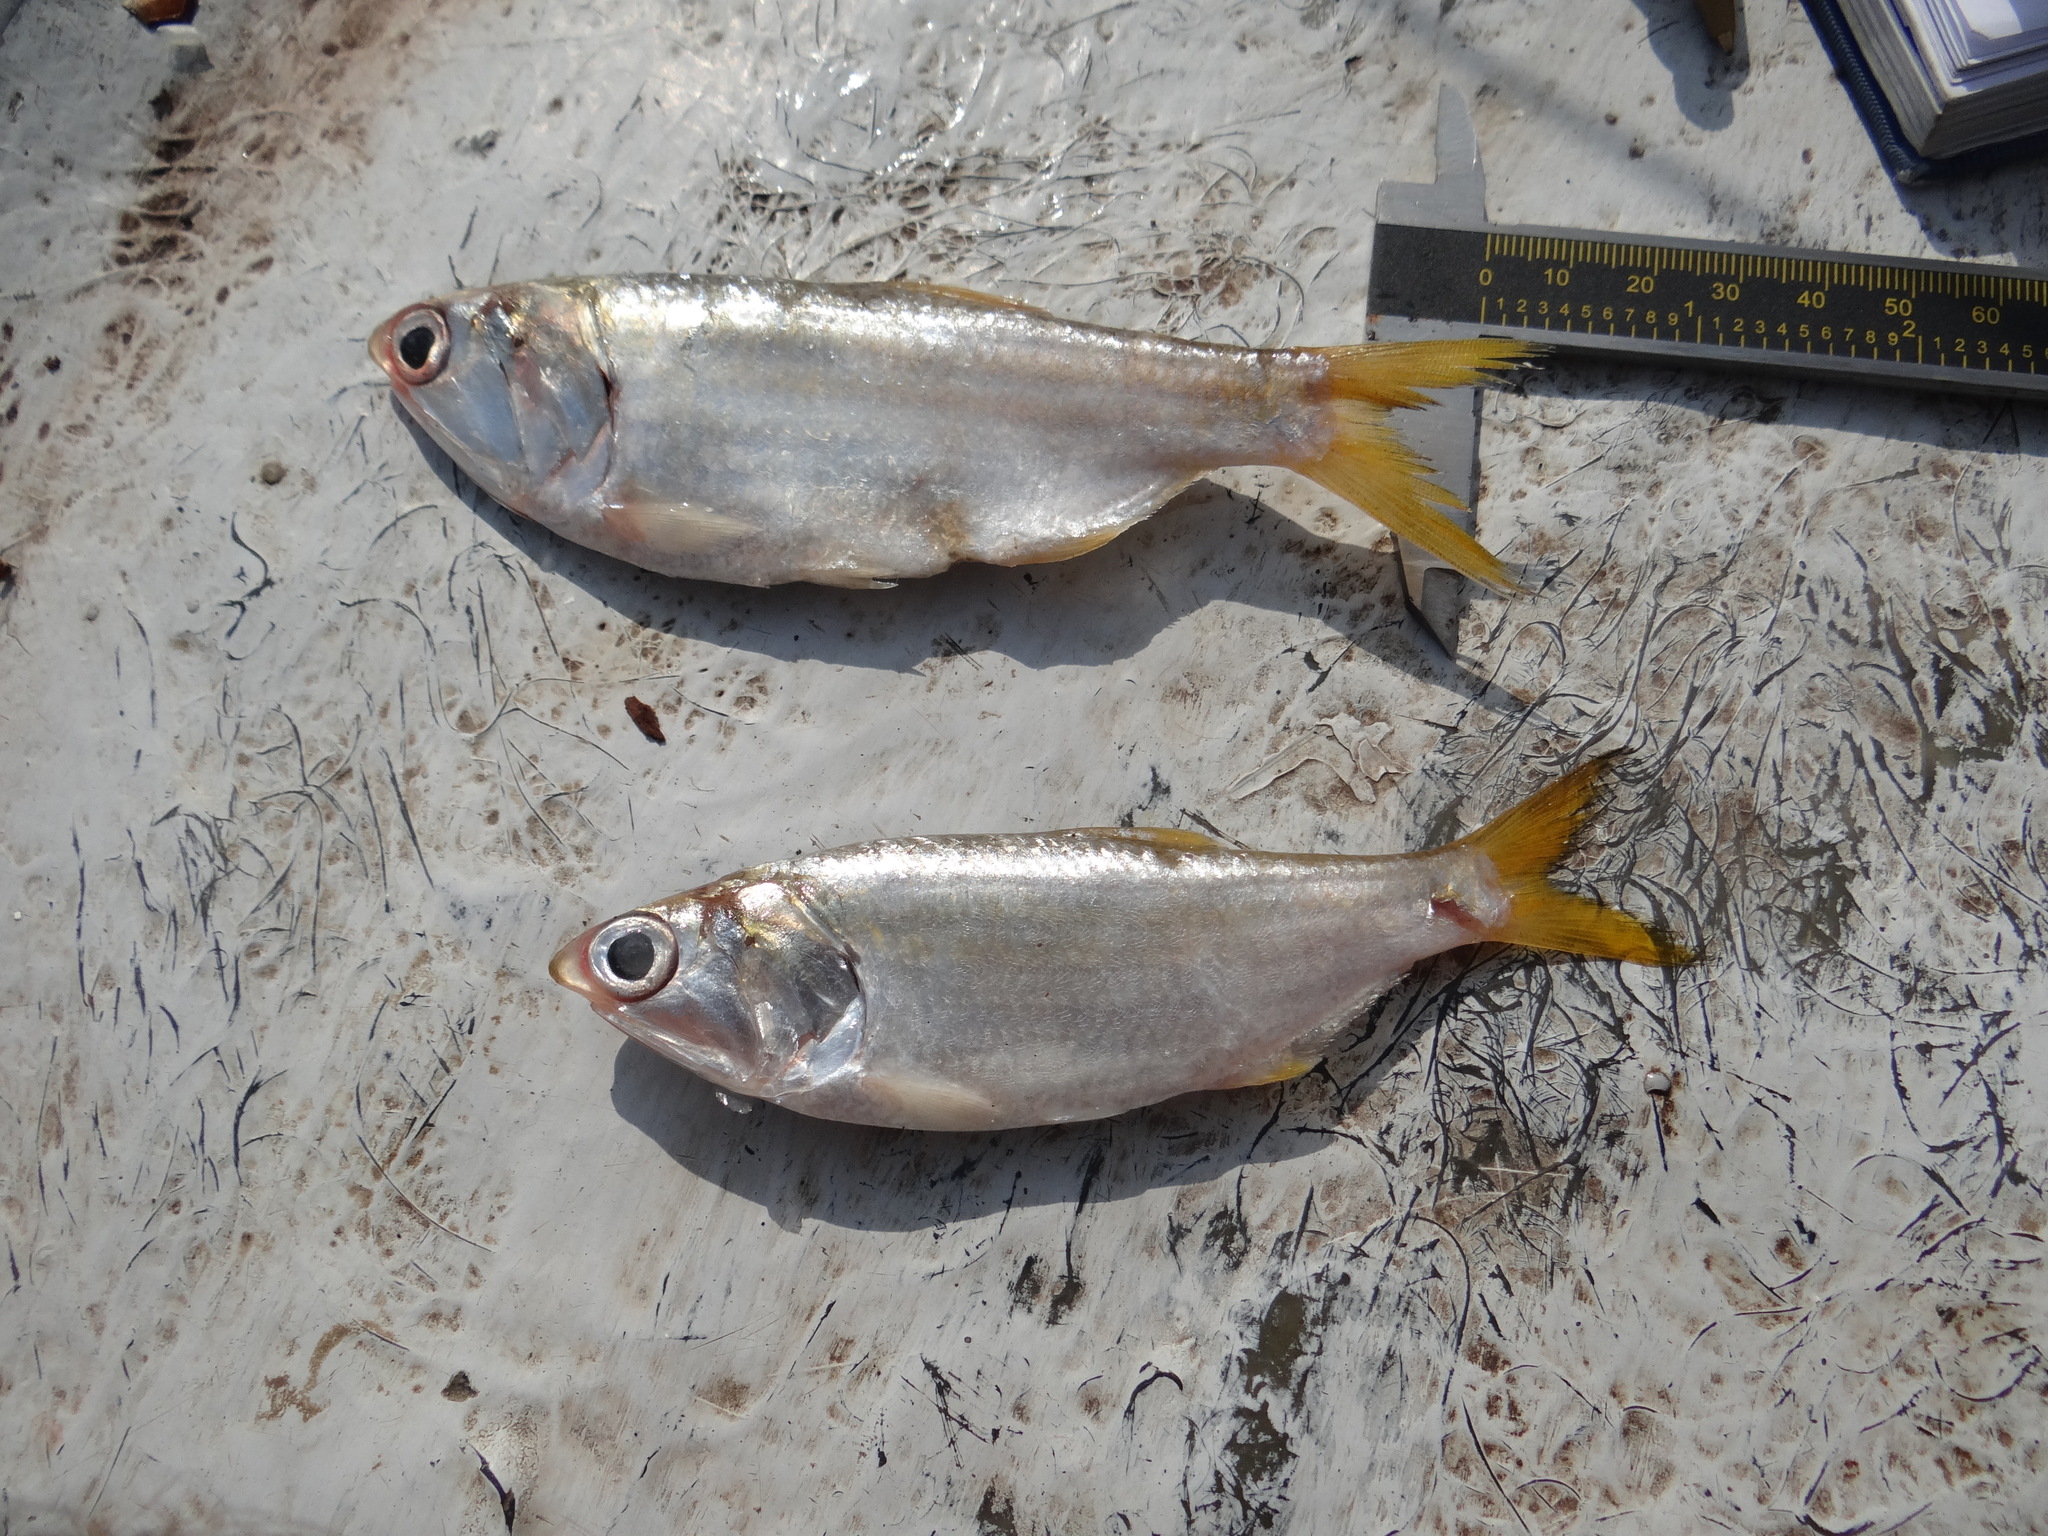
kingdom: Animalia
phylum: Chordata
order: Clupeiformes
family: Engraulidae
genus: Cetengraulis
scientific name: Cetengraulis edentulus
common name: Toothless anchovy
